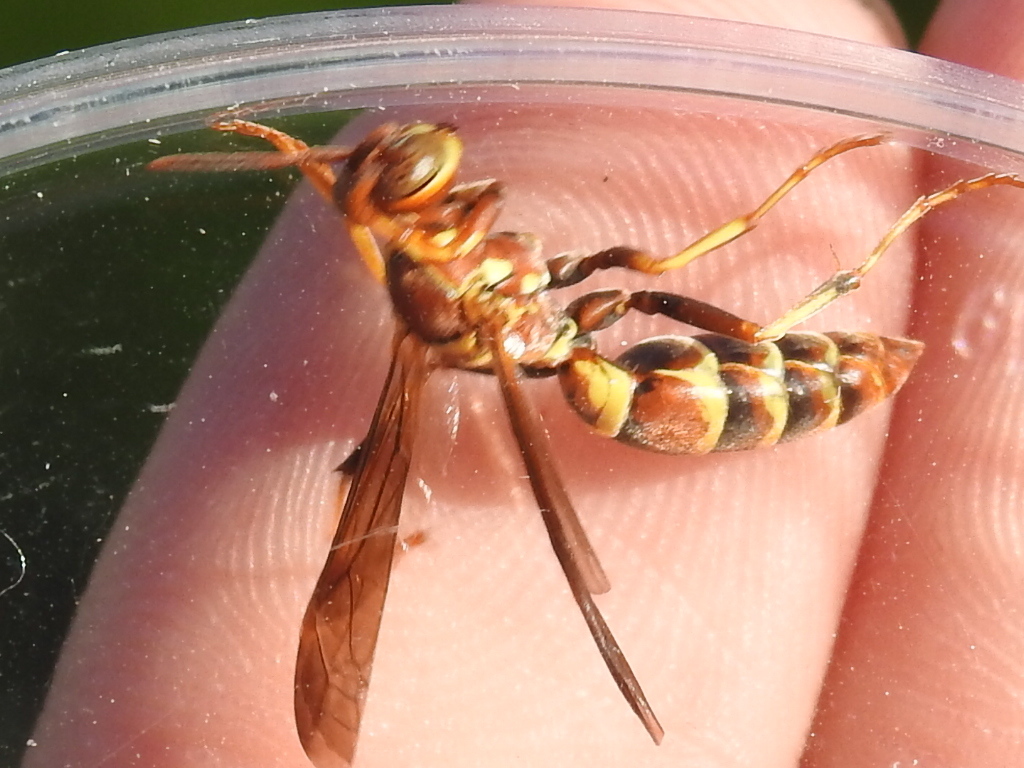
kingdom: Animalia
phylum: Arthropoda
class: Insecta
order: Hymenoptera
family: Eumenidae
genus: Polistes
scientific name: Polistes dorsalis
